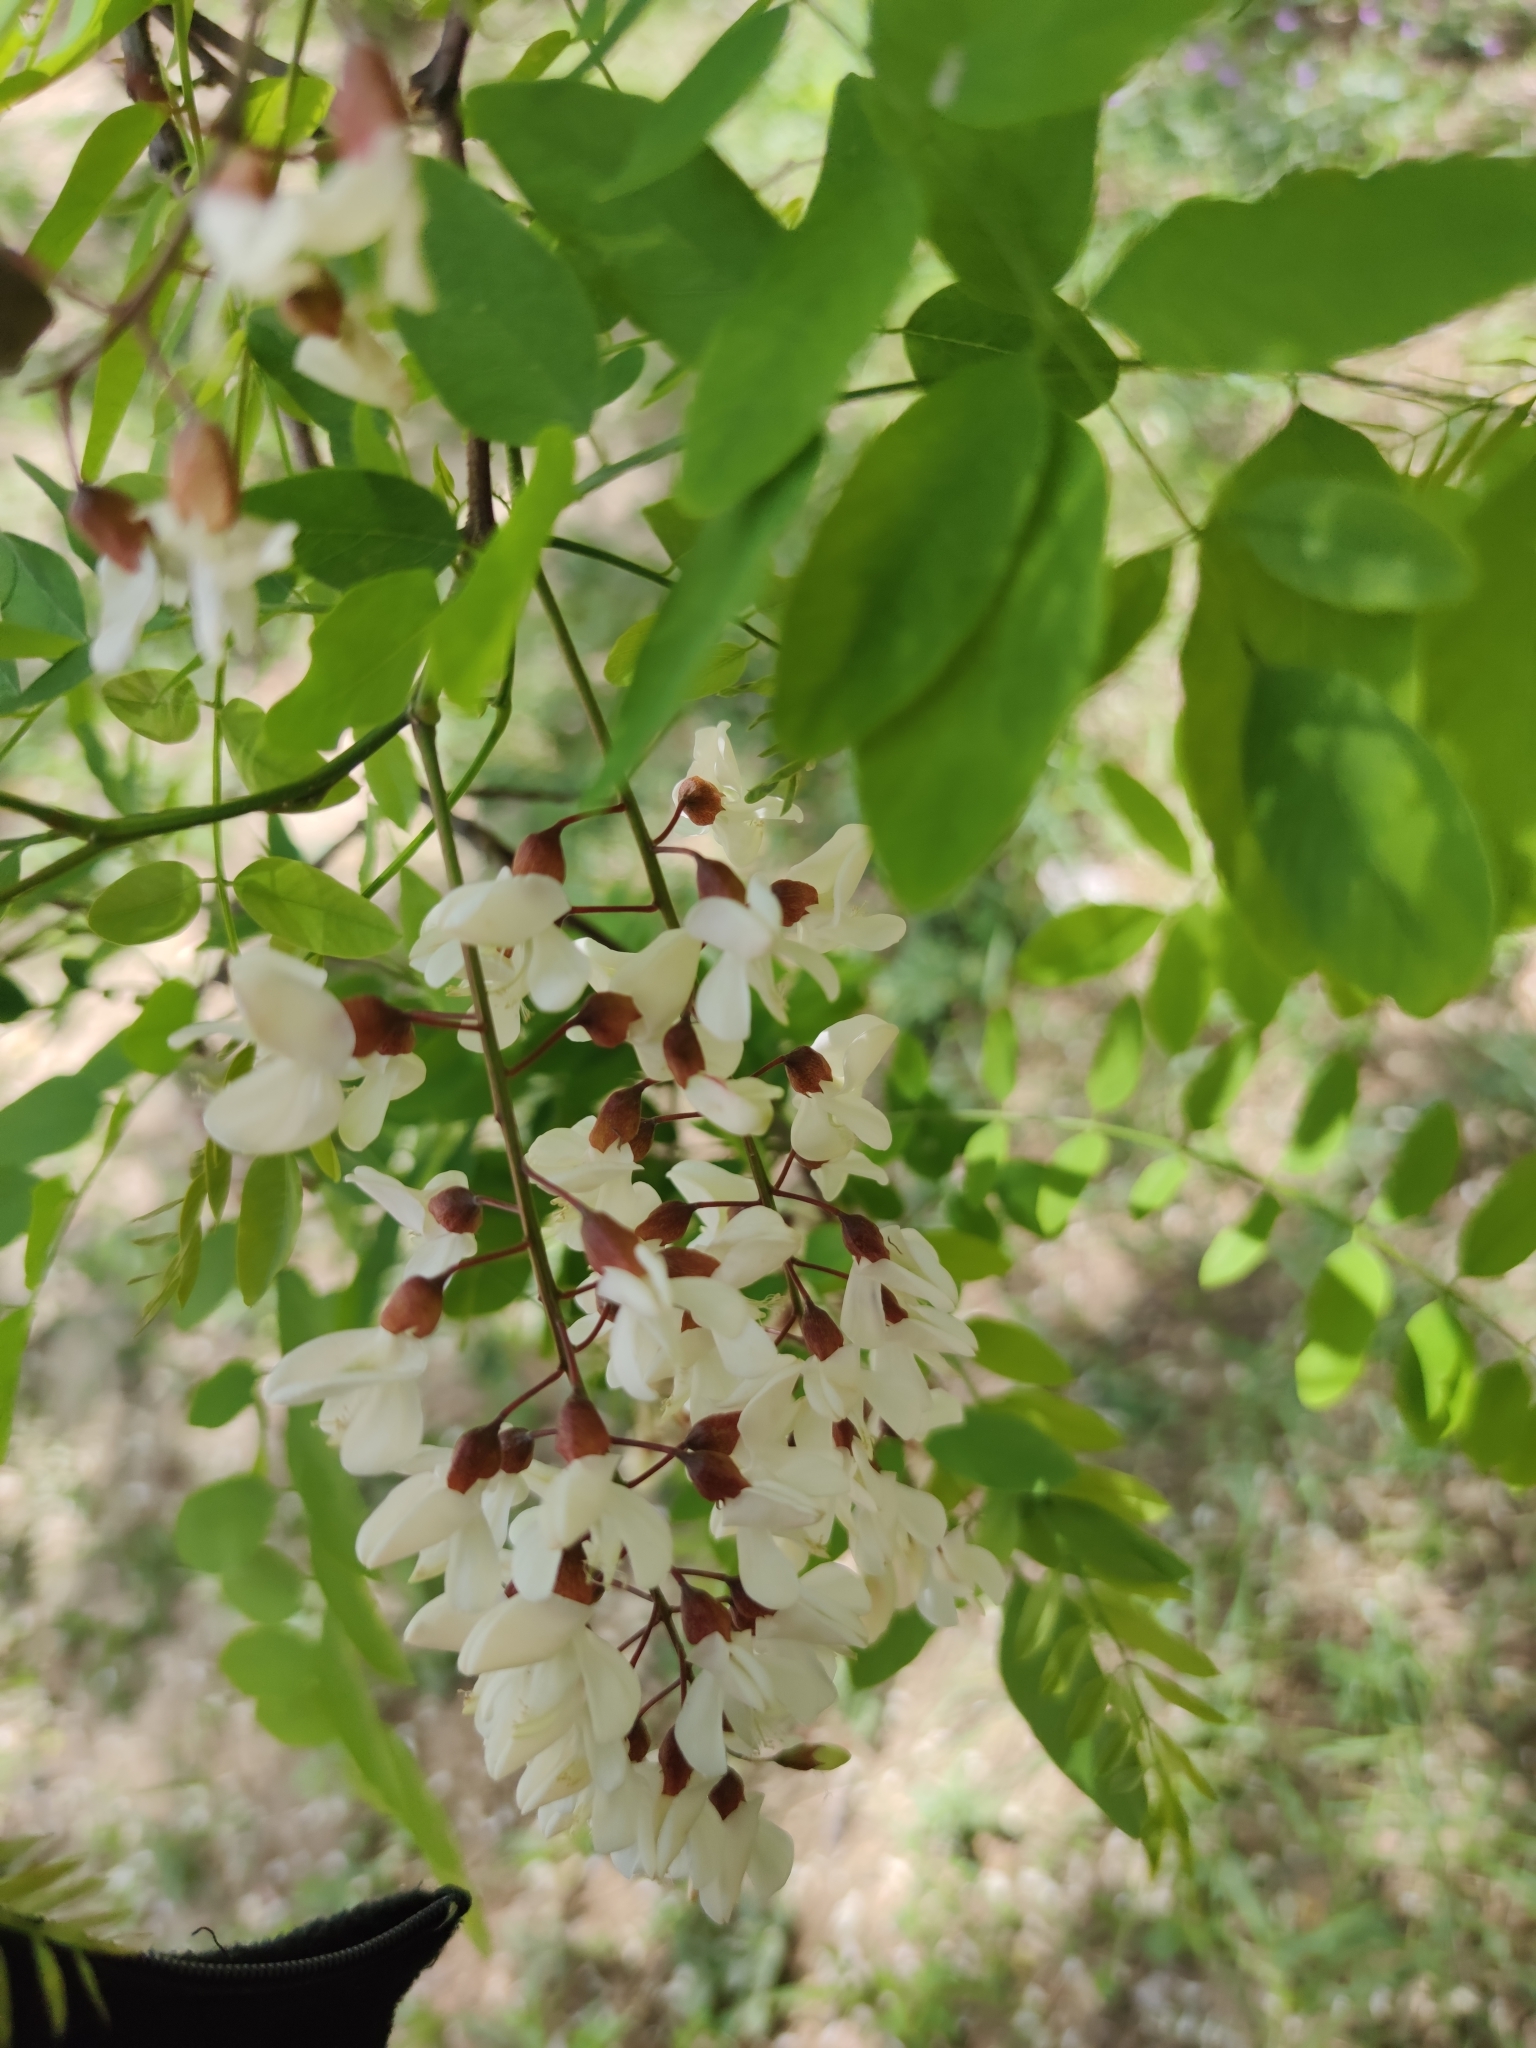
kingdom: Plantae
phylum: Tracheophyta
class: Magnoliopsida
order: Fabales
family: Fabaceae
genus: Robinia
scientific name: Robinia pseudoacacia
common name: Black locust
